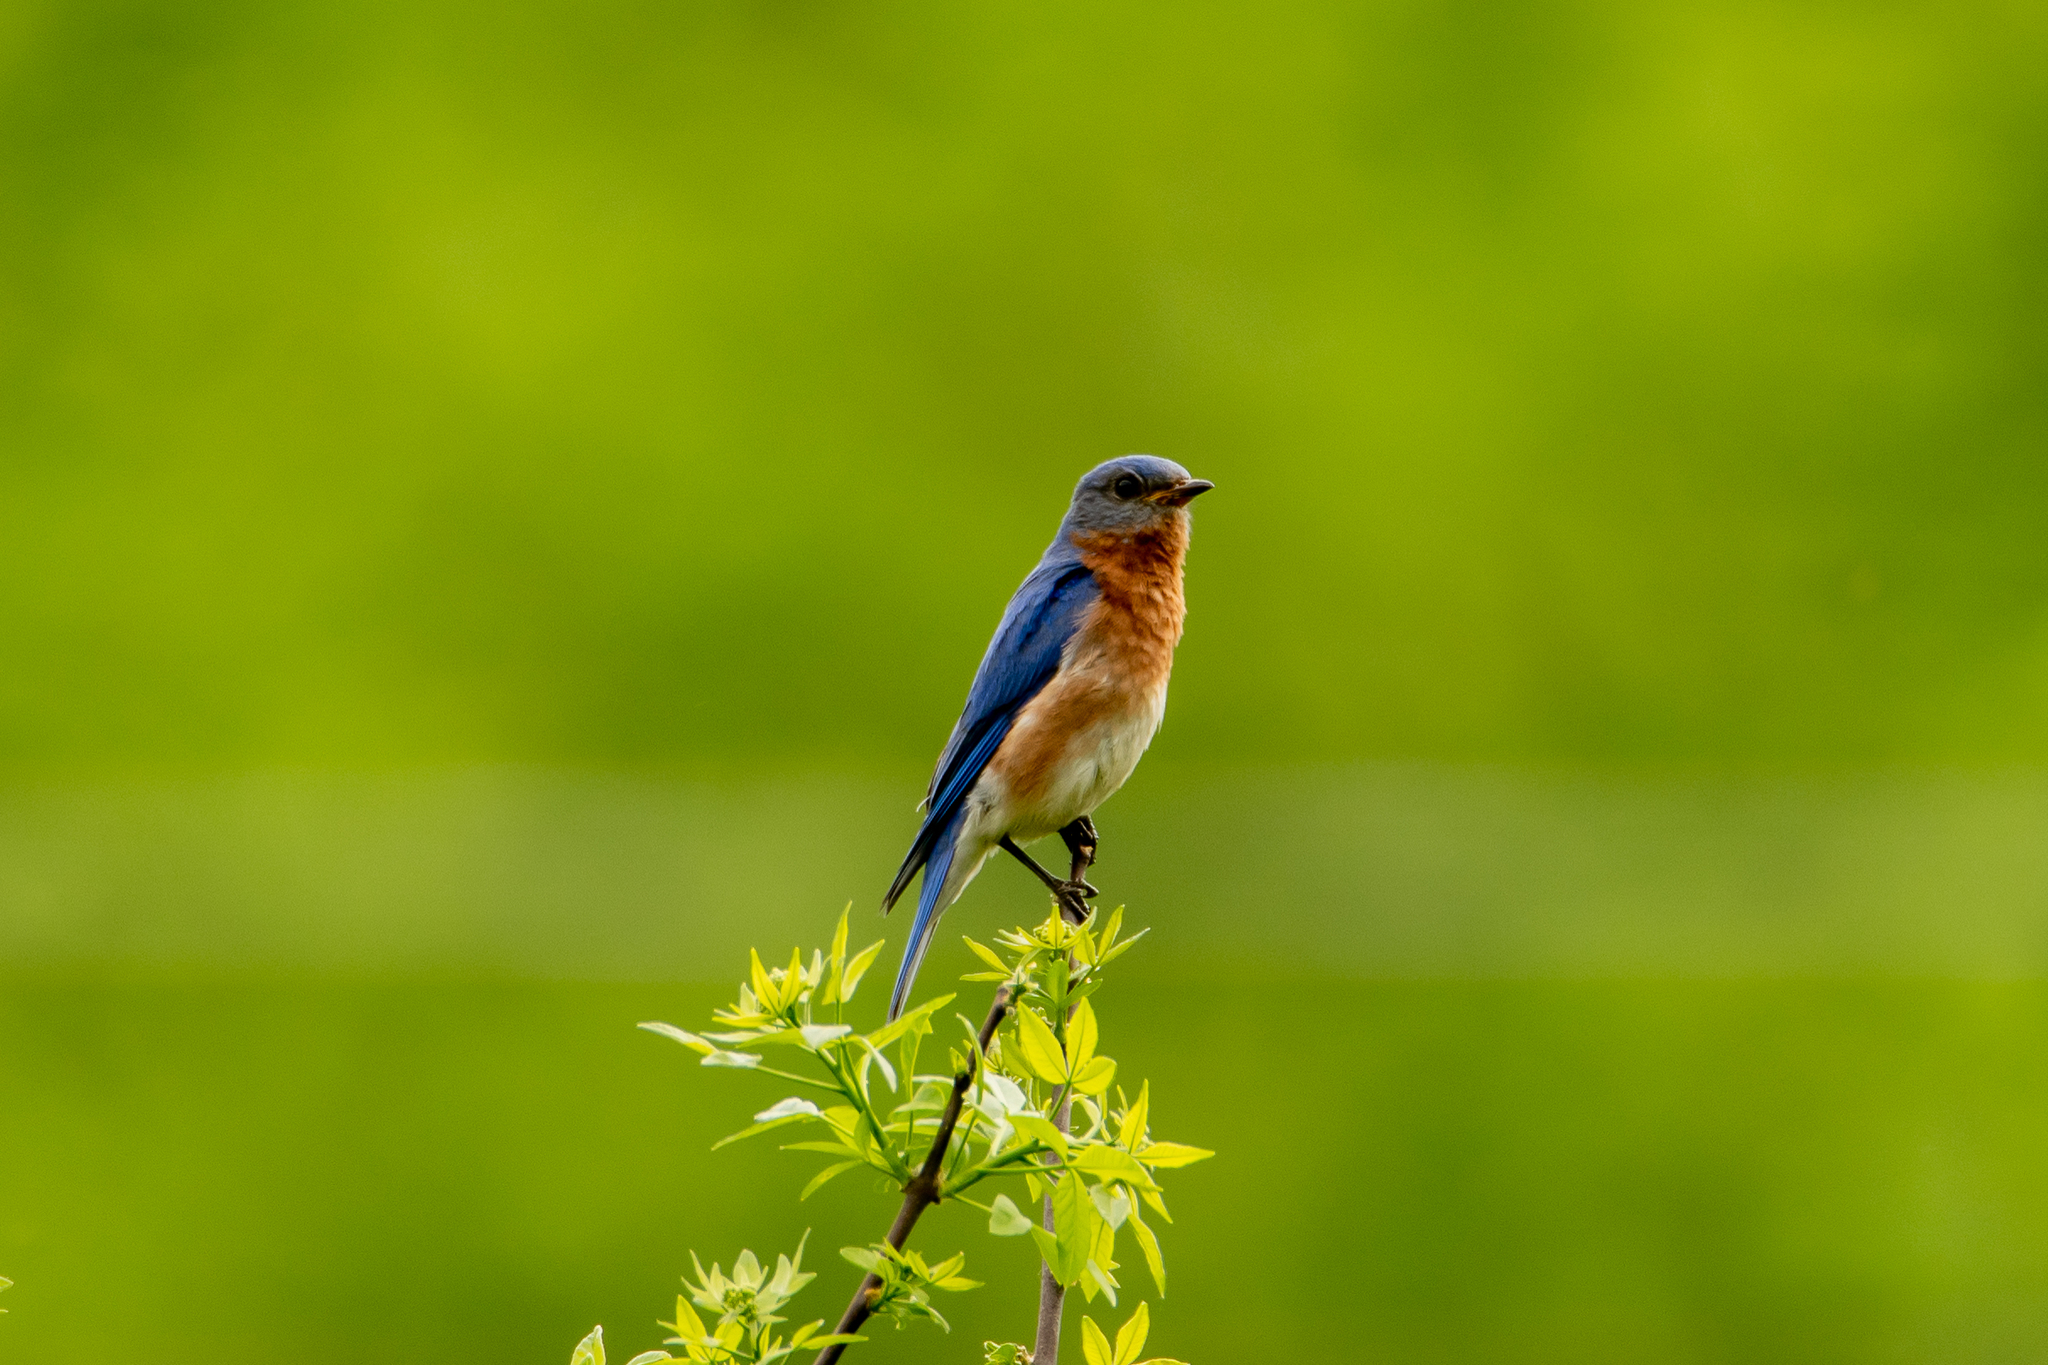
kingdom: Animalia
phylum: Chordata
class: Aves
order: Passeriformes
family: Turdidae
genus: Sialia
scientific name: Sialia sialis
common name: Eastern bluebird
